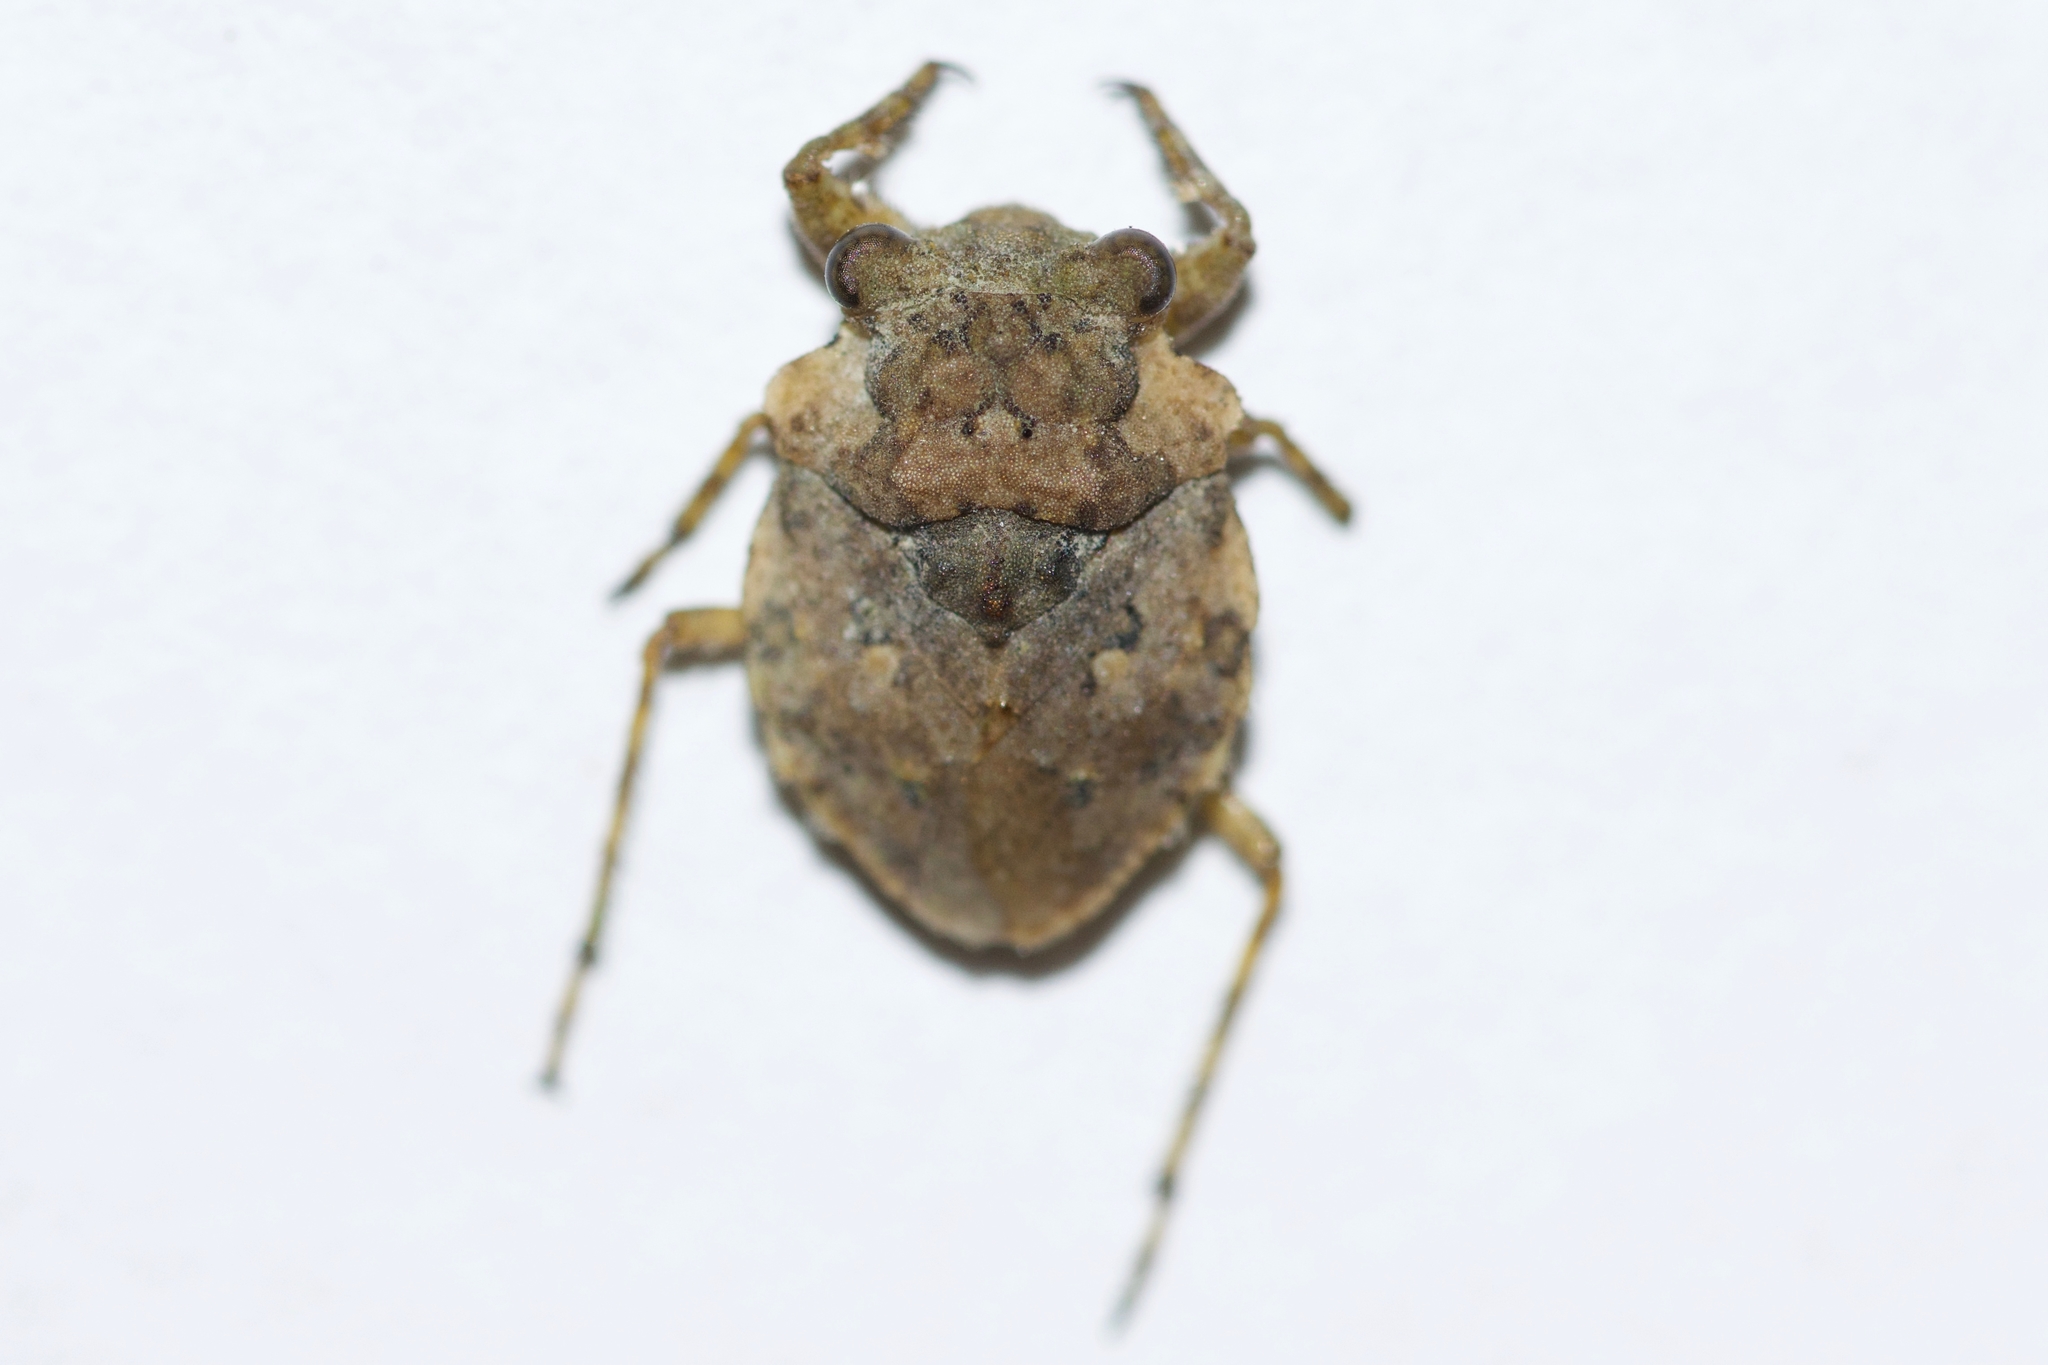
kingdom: Animalia
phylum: Arthropoda
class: Insecta
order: Hemiptera
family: Gelastocoridae
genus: Gelastocoris
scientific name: Gelastocoris oculatus
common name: Toad bug
